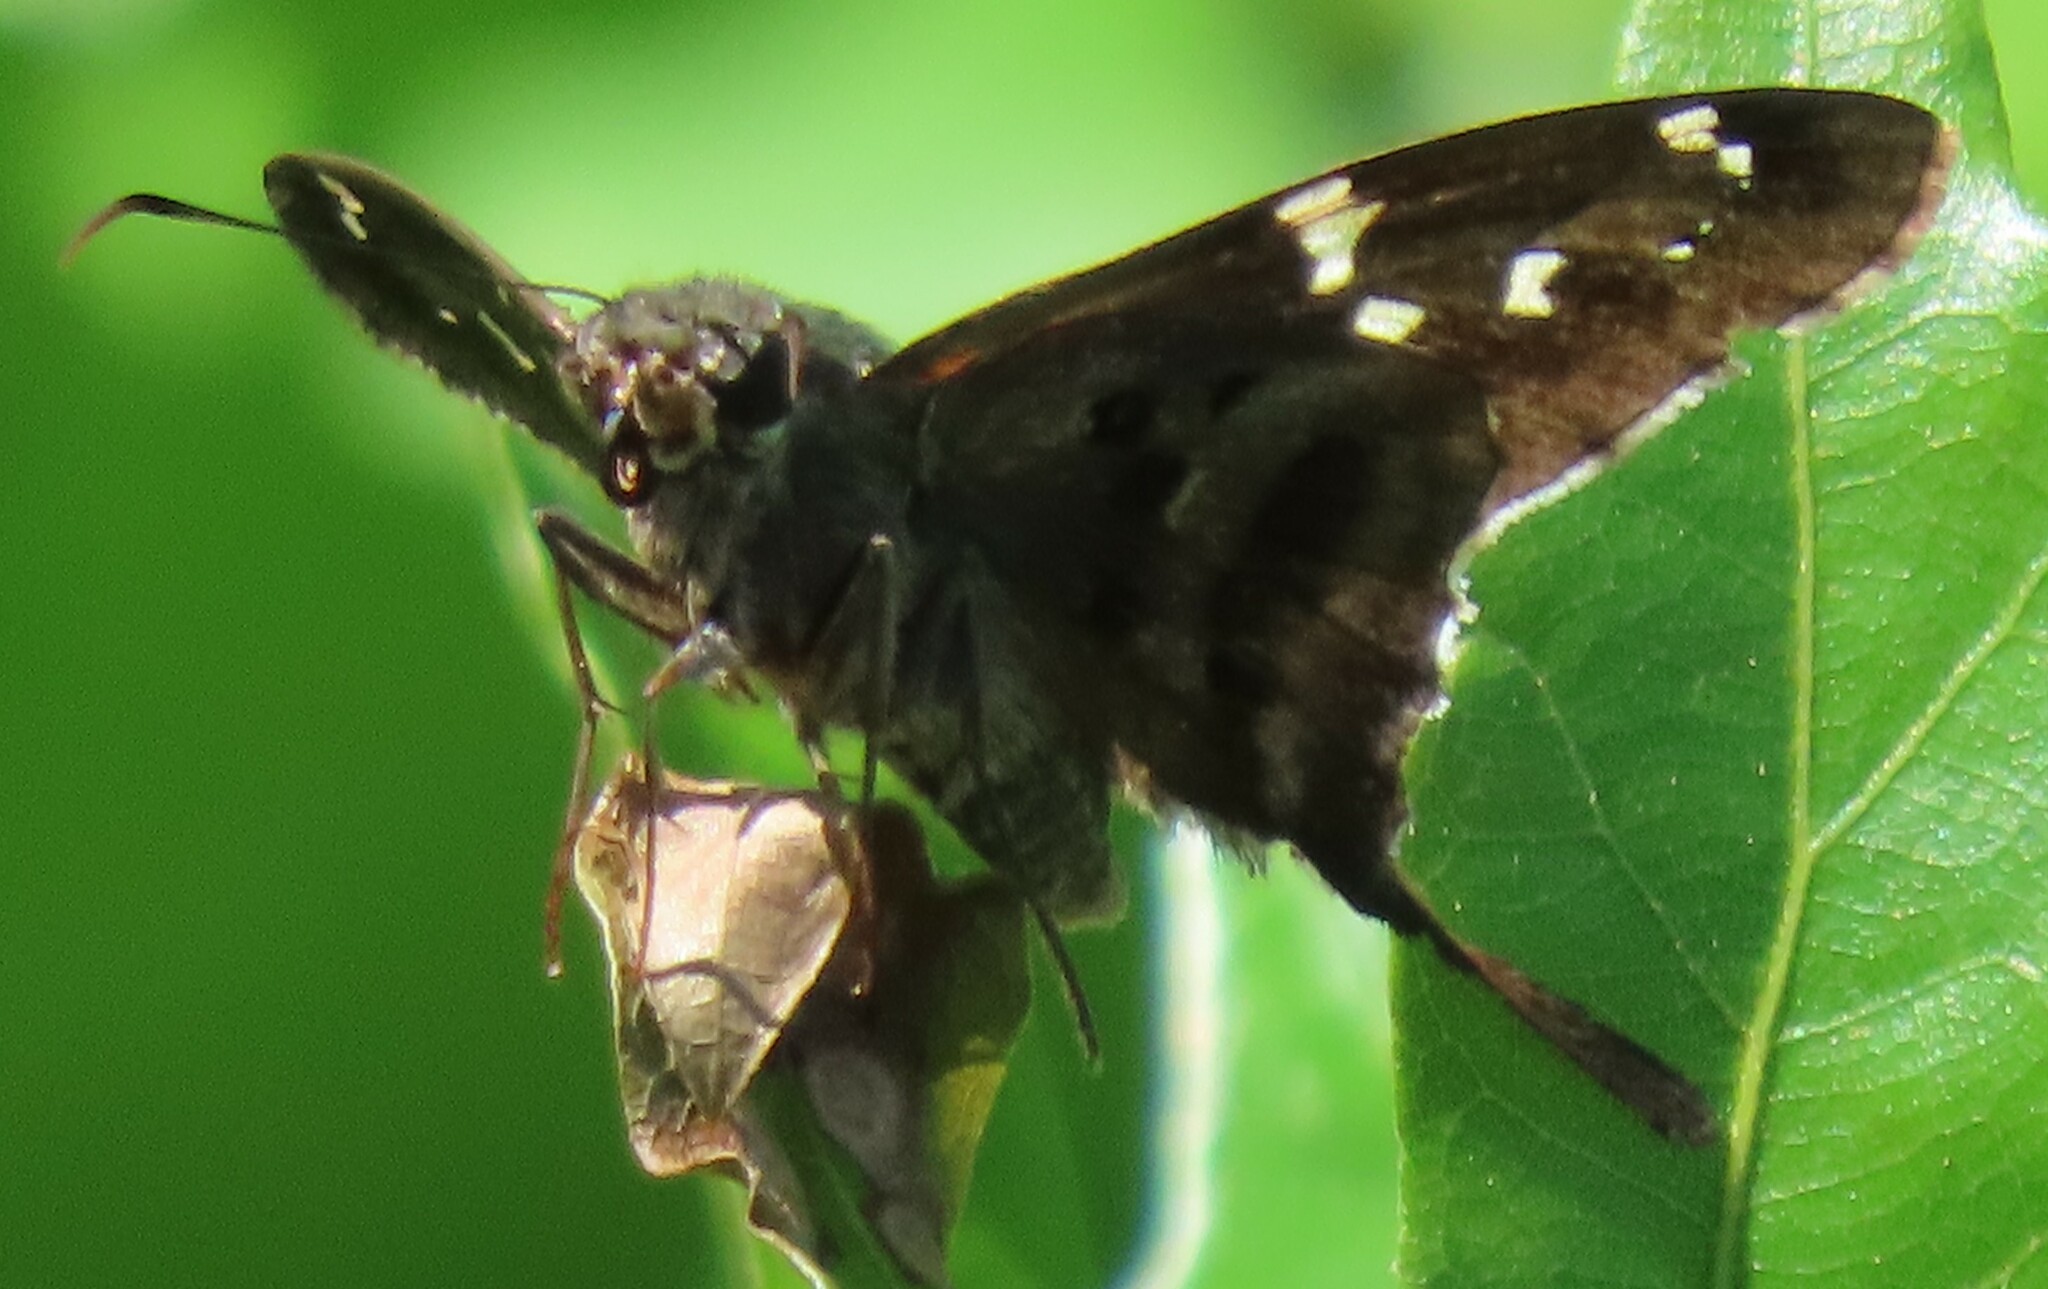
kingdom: Animalia
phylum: Arthropoda
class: Insecta
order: Lepidoptera
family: Hesperiidae
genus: Urbanus
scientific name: Urbanus proteus
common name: Long-tailed skipper
